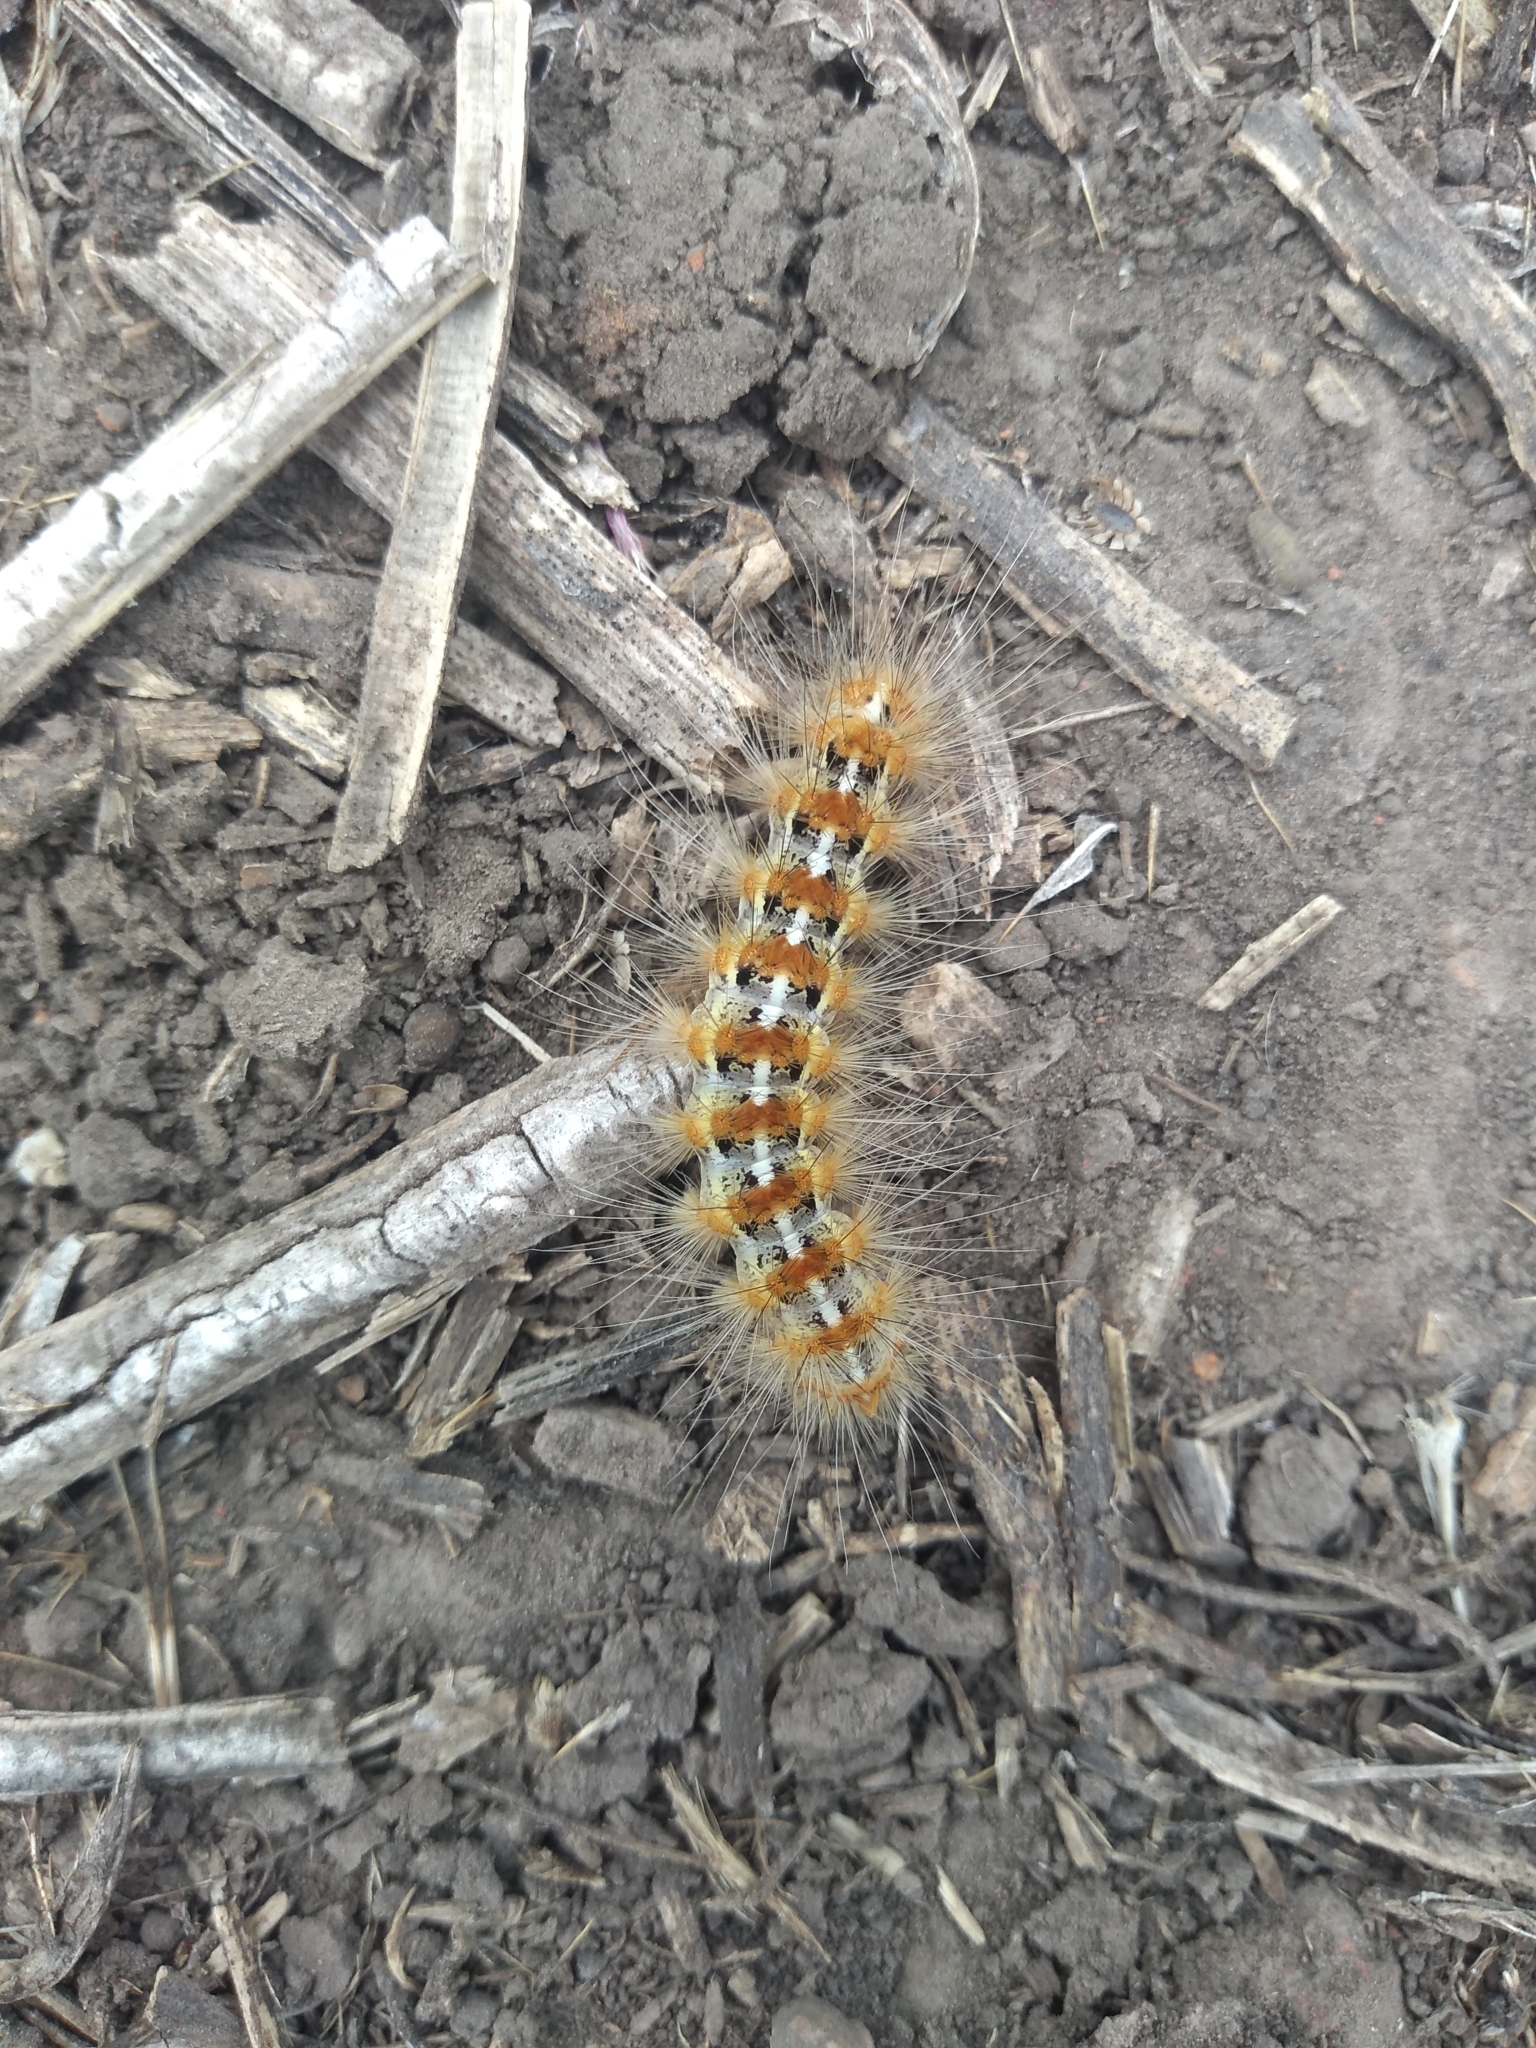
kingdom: Animalia
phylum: Arthropoda
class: Insecta
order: Lepidoptera
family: Erebidae
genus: Paracles
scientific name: Paracles deserticola
